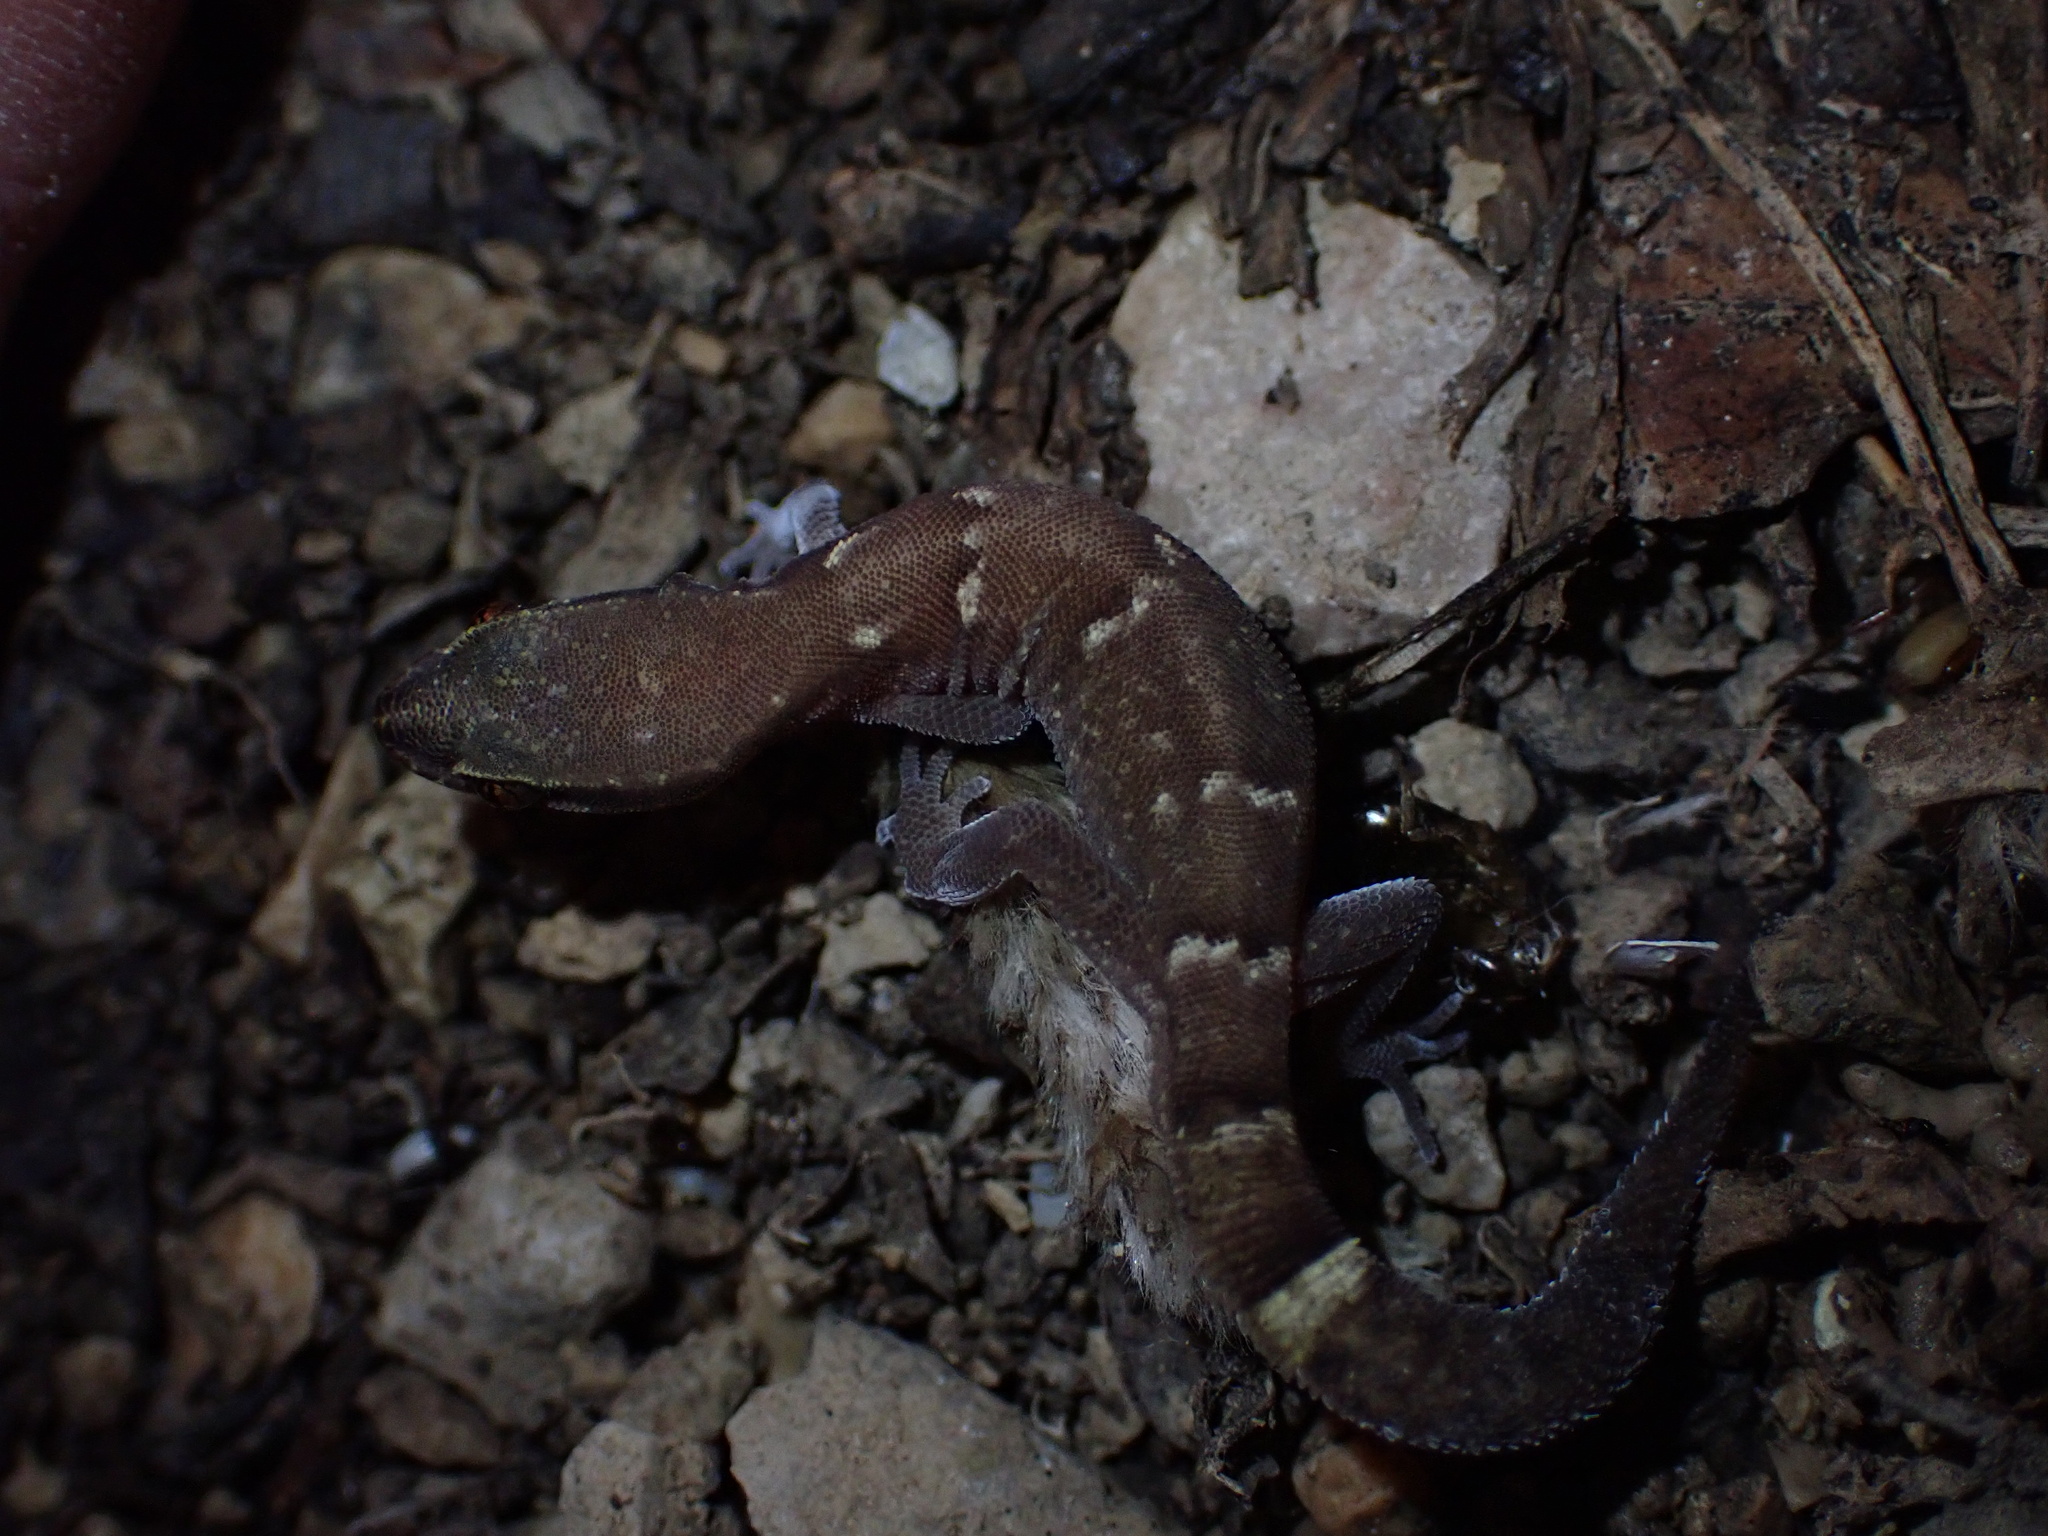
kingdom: Animalia
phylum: Chordata
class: Squamata
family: Gekkonidae
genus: Microgecko
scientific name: Microgecko helenae
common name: Banded dwarf gecko
